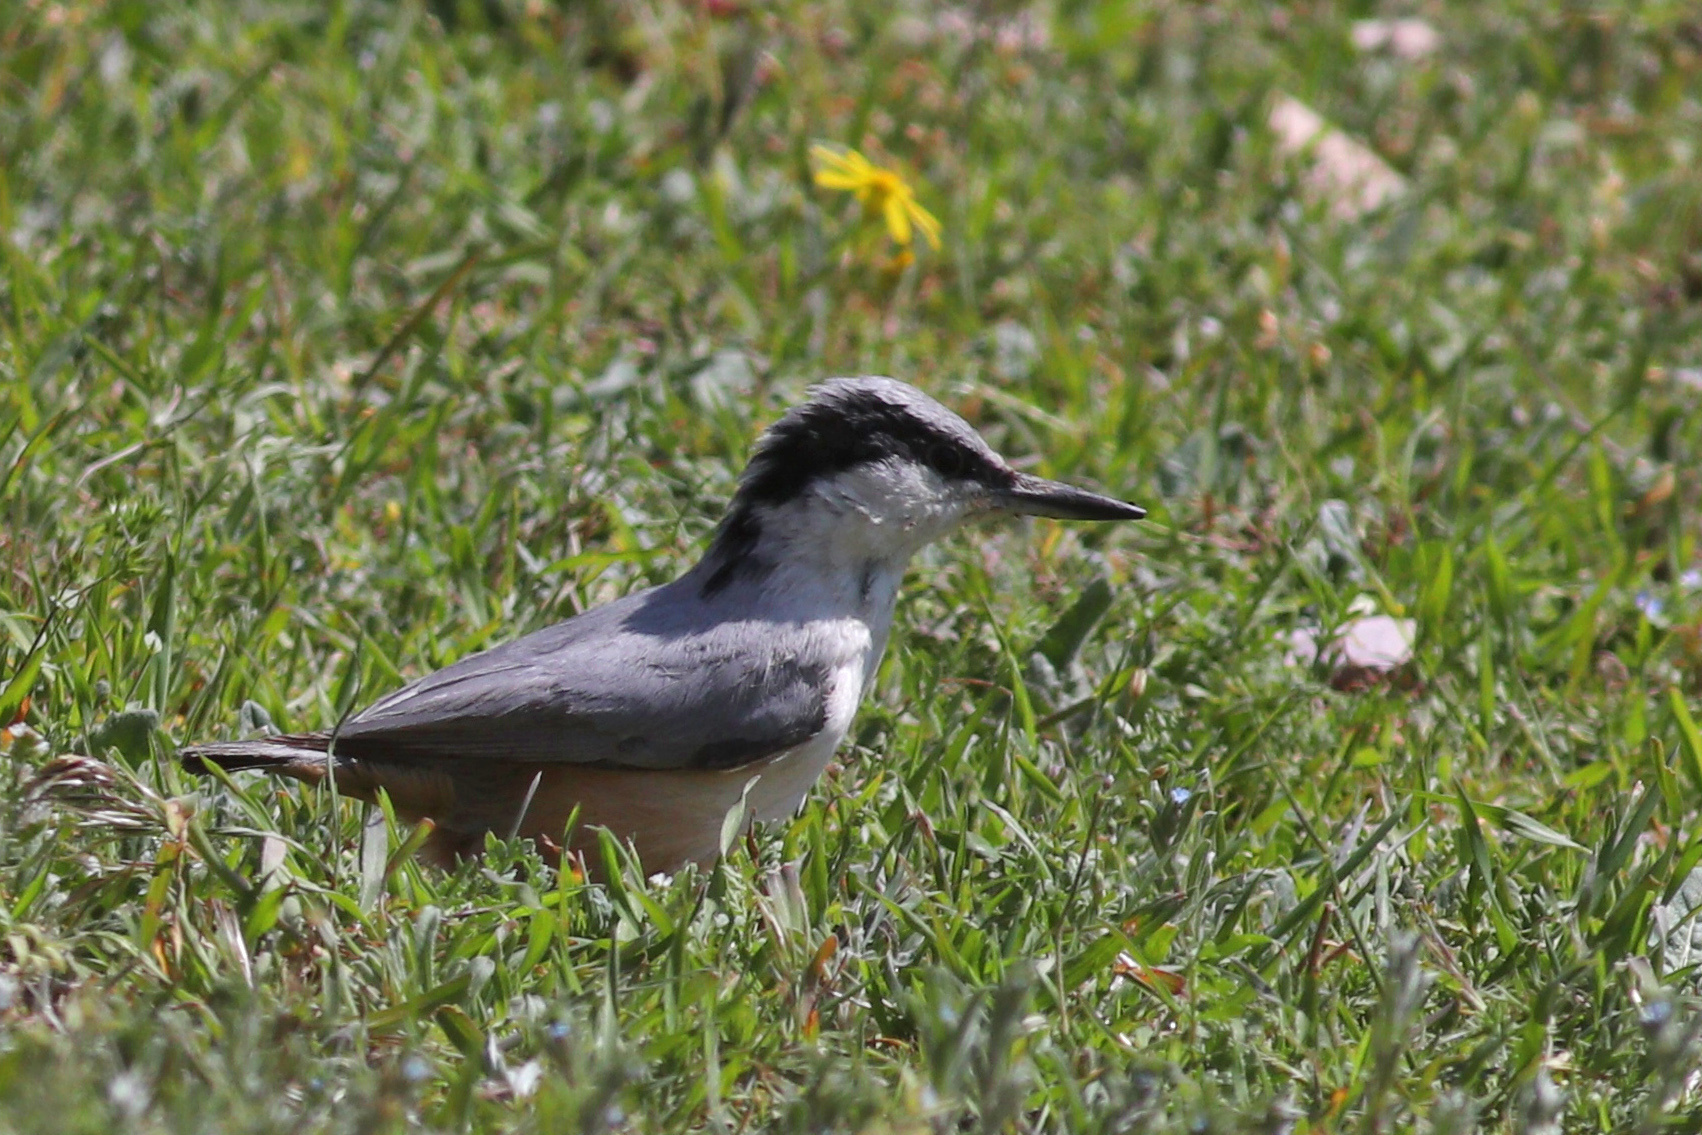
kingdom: Animalia
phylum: Chordata
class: Aves
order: Passeriformes
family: Sittidae
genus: Sitta
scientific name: Sitta tephronota
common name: Eastern rock nuthatch
